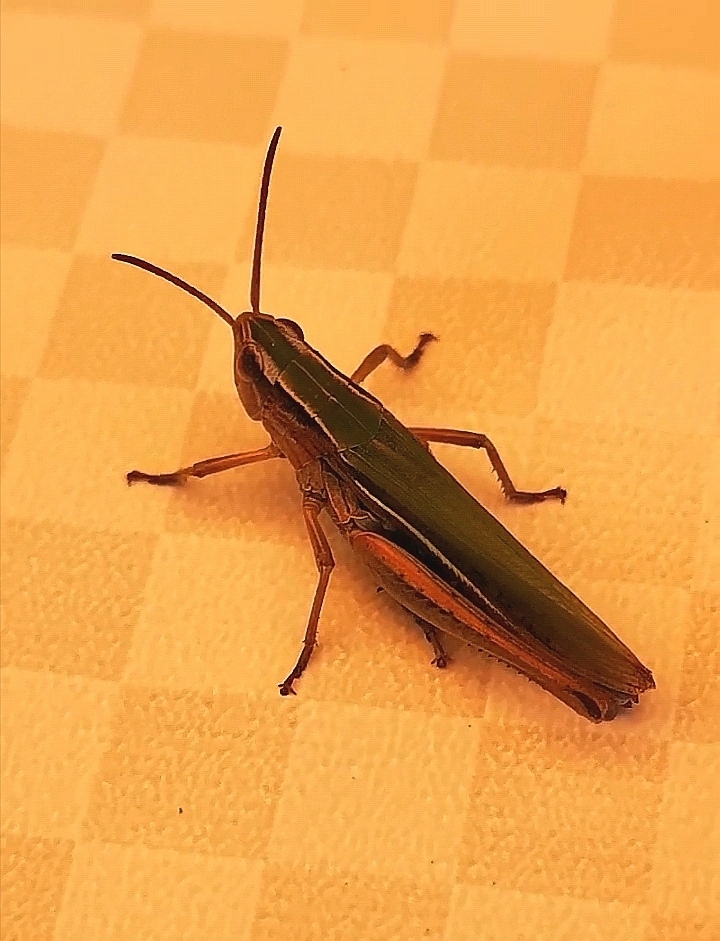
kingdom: Animalia
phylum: Arthropoda
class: Insecta
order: Orthoptera
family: Acrididae
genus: Chorthippus
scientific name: Chorthippus albomarginatus
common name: Lesser marsh grasshopper
